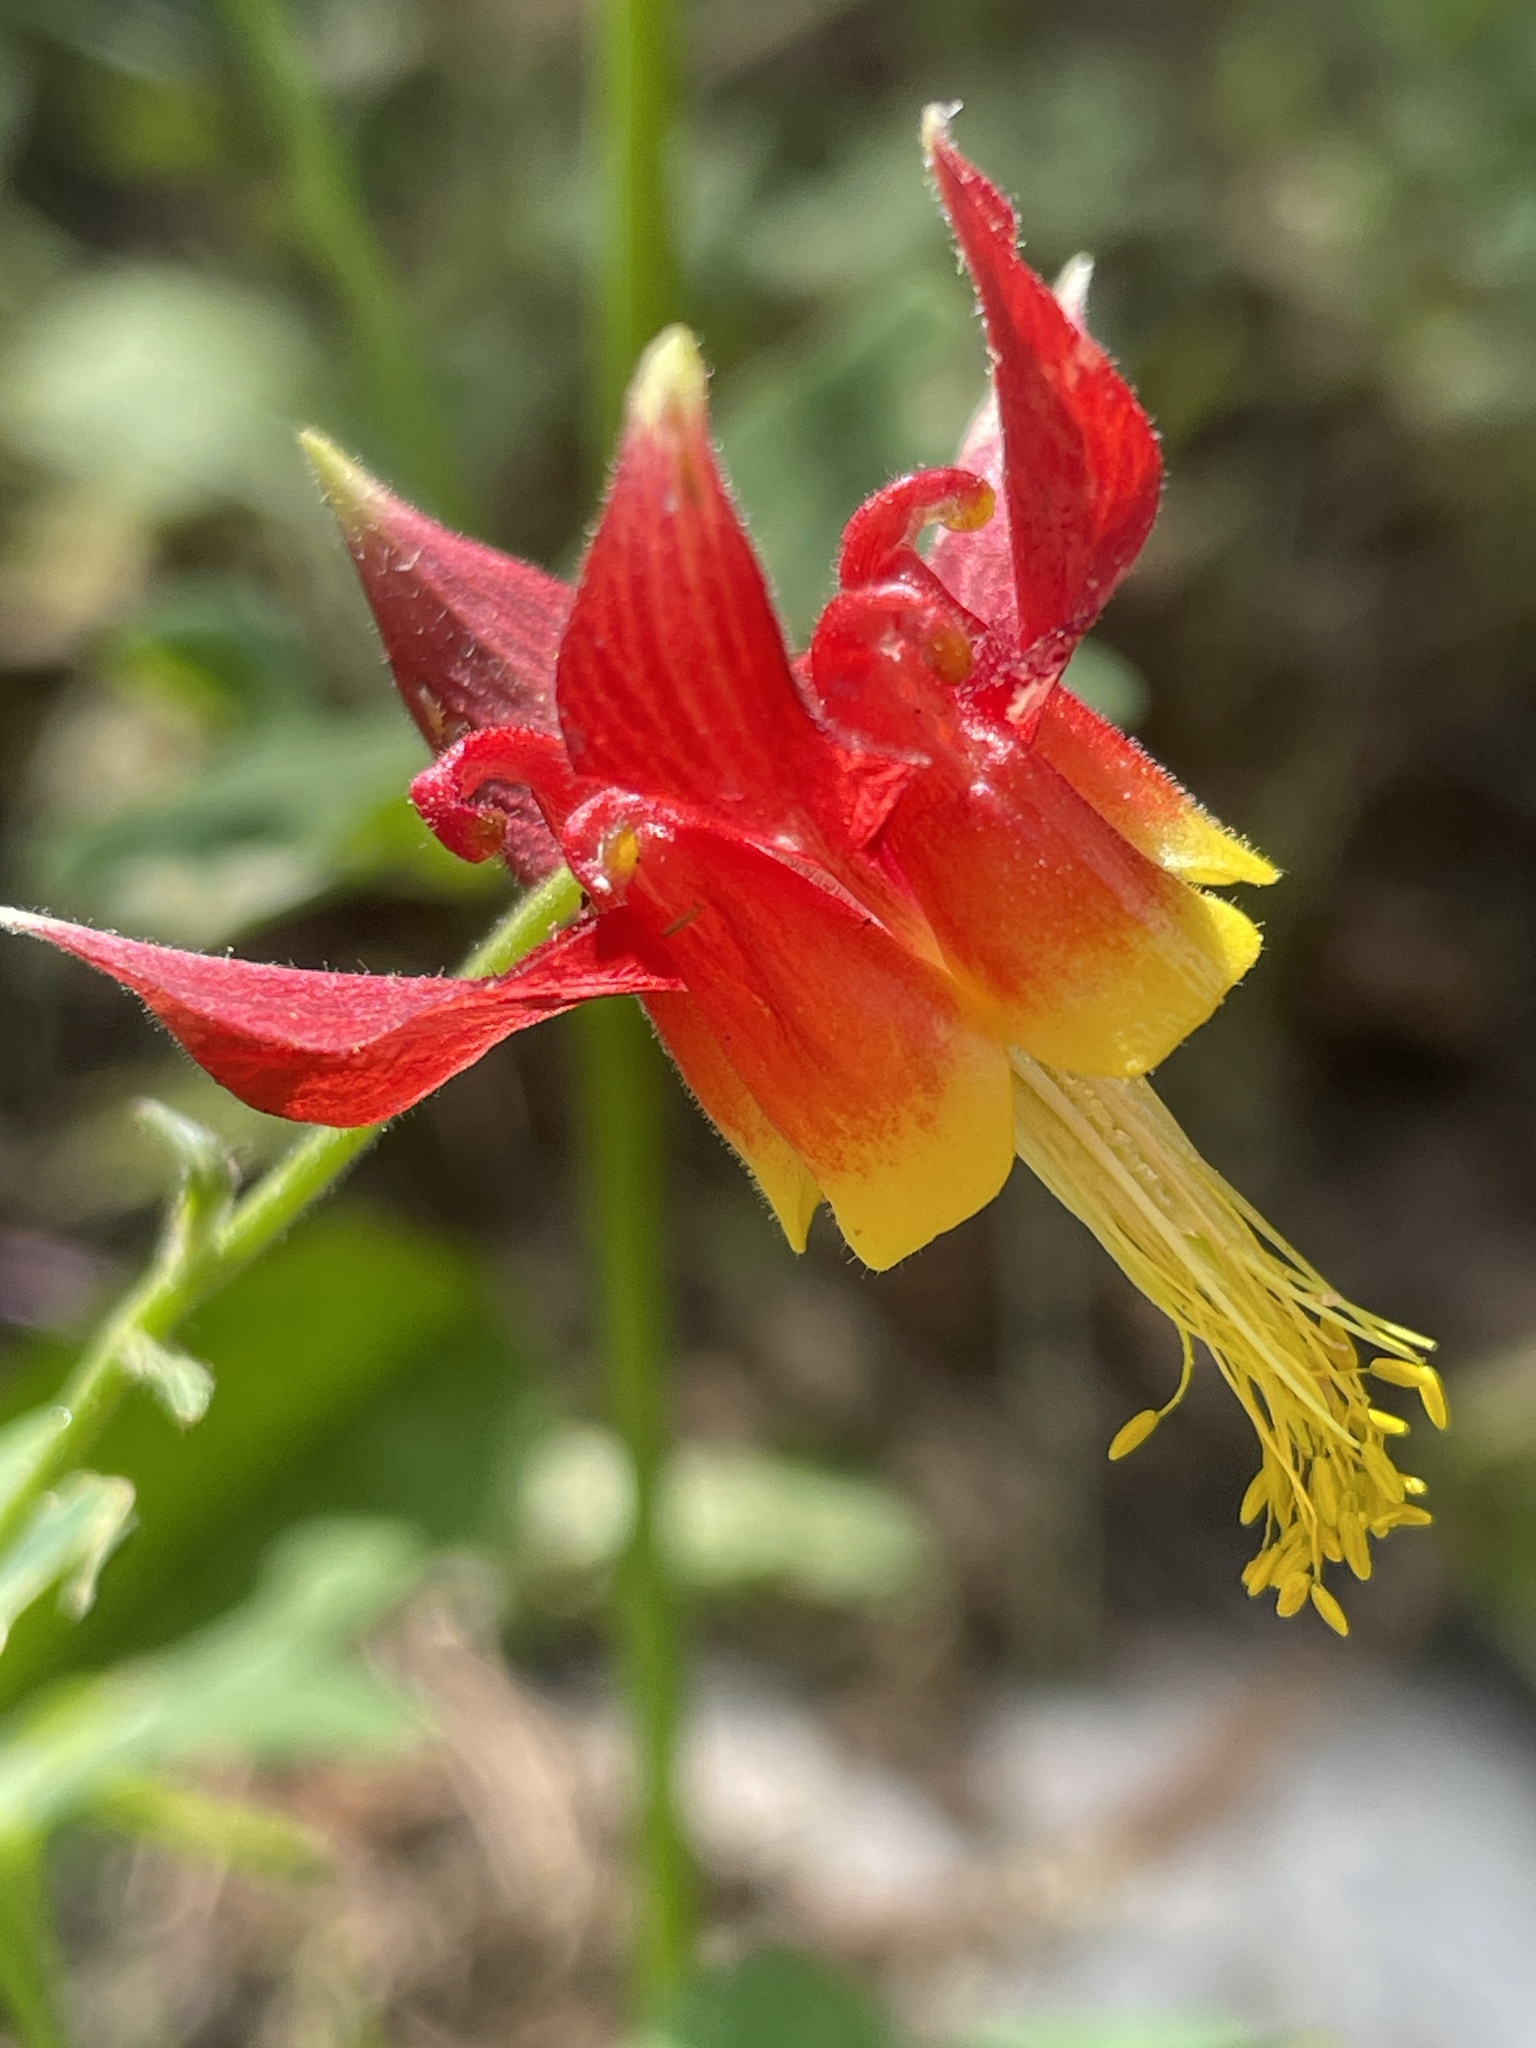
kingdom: Plantae
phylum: Tracheophyta
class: Magnoliopsida
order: Ranunculales
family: Ranunculaceae
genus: Aquilegia
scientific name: Aquilegia formosa
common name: Sitka columbine
